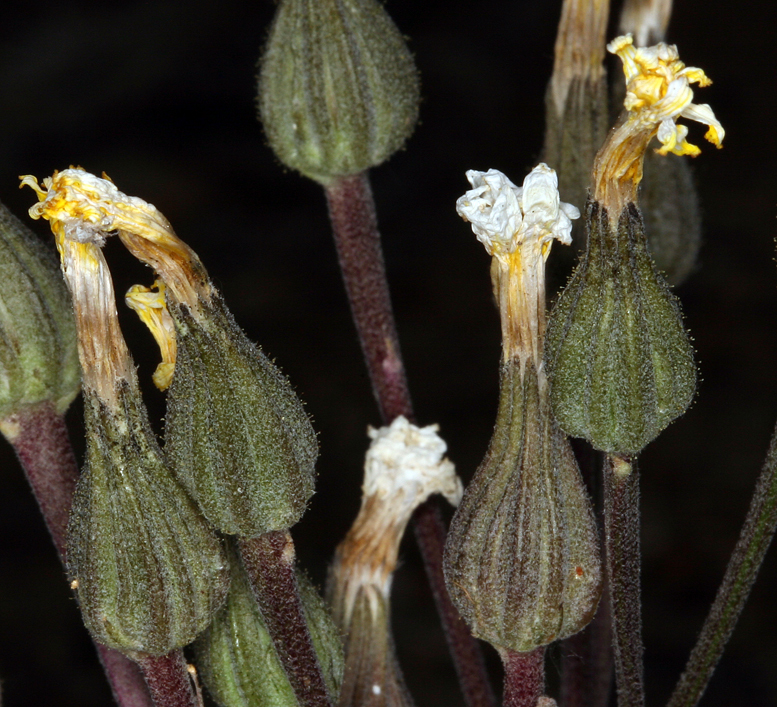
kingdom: Plantae
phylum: Tracheophyta
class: Magnoliopsida
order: Asterales
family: Asteraceae
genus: Crepis
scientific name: Crepis occidentalis
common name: Gray hawk's-beard
